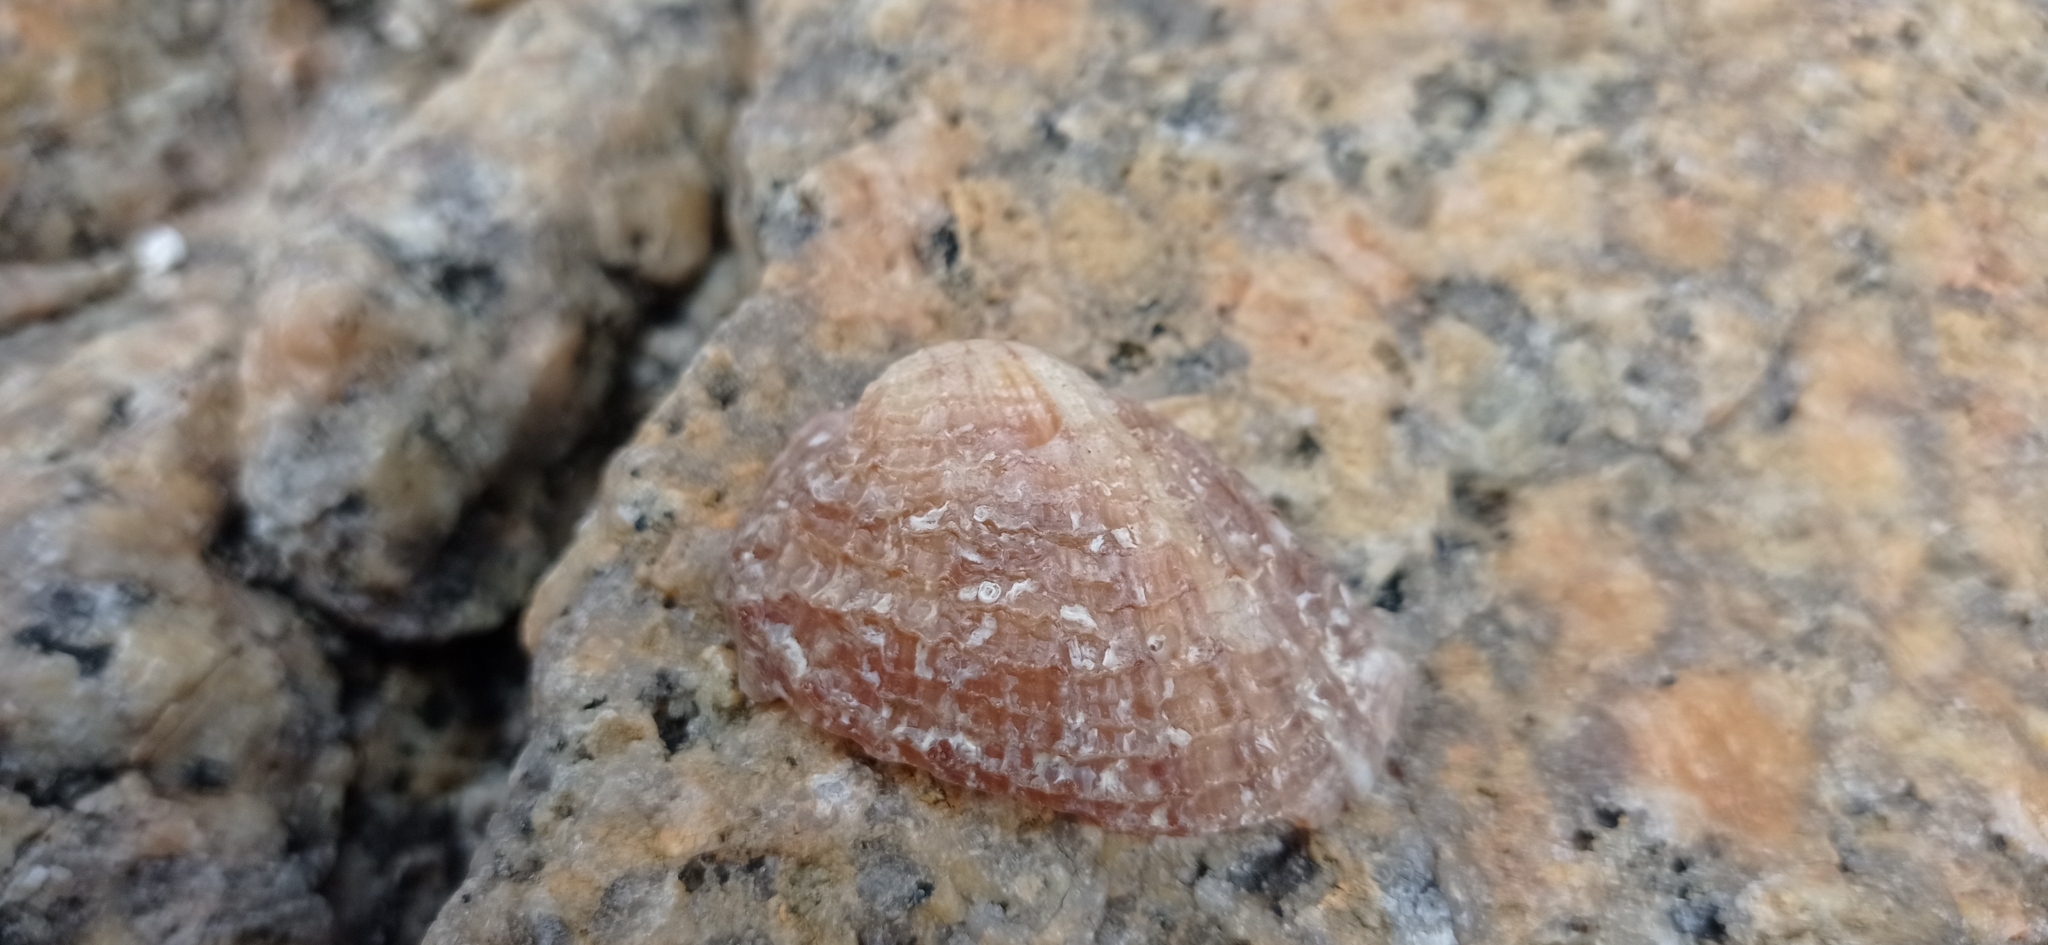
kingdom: Animalia
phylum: Mollusca
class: Gastropoda
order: Neogastropoda
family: Muricidae
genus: Concholepas
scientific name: Concholepas concholepas
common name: Chilean abalone
